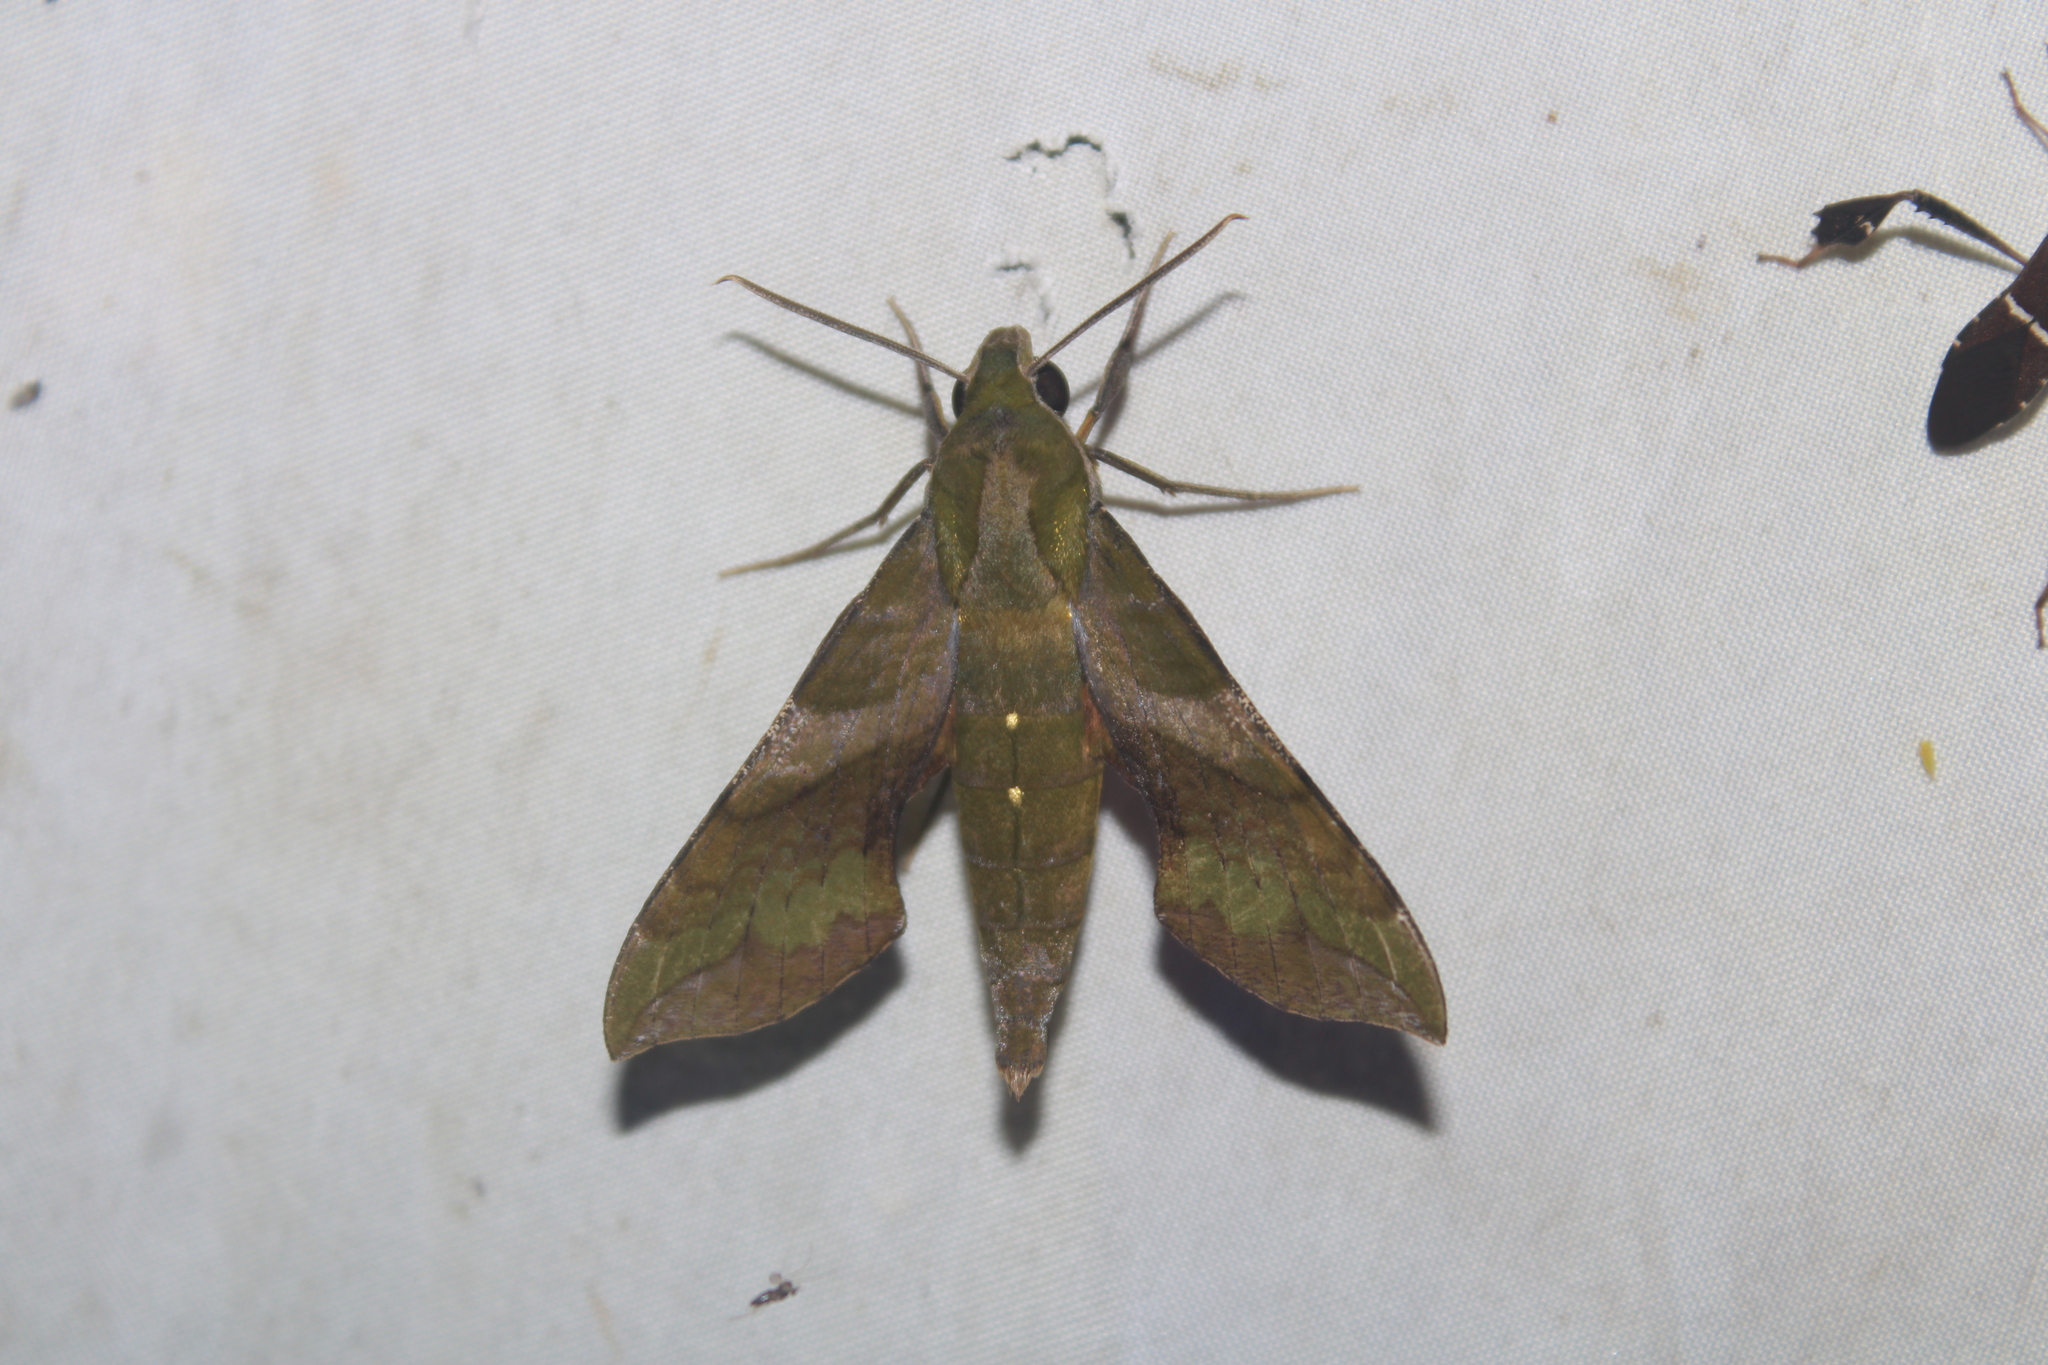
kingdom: Animalia
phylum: Arthropoda
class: Insecta
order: Lepidoptera
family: Sphingidae
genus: Xylophanes
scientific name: Xylophanes pluto
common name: Pluto sphinx
